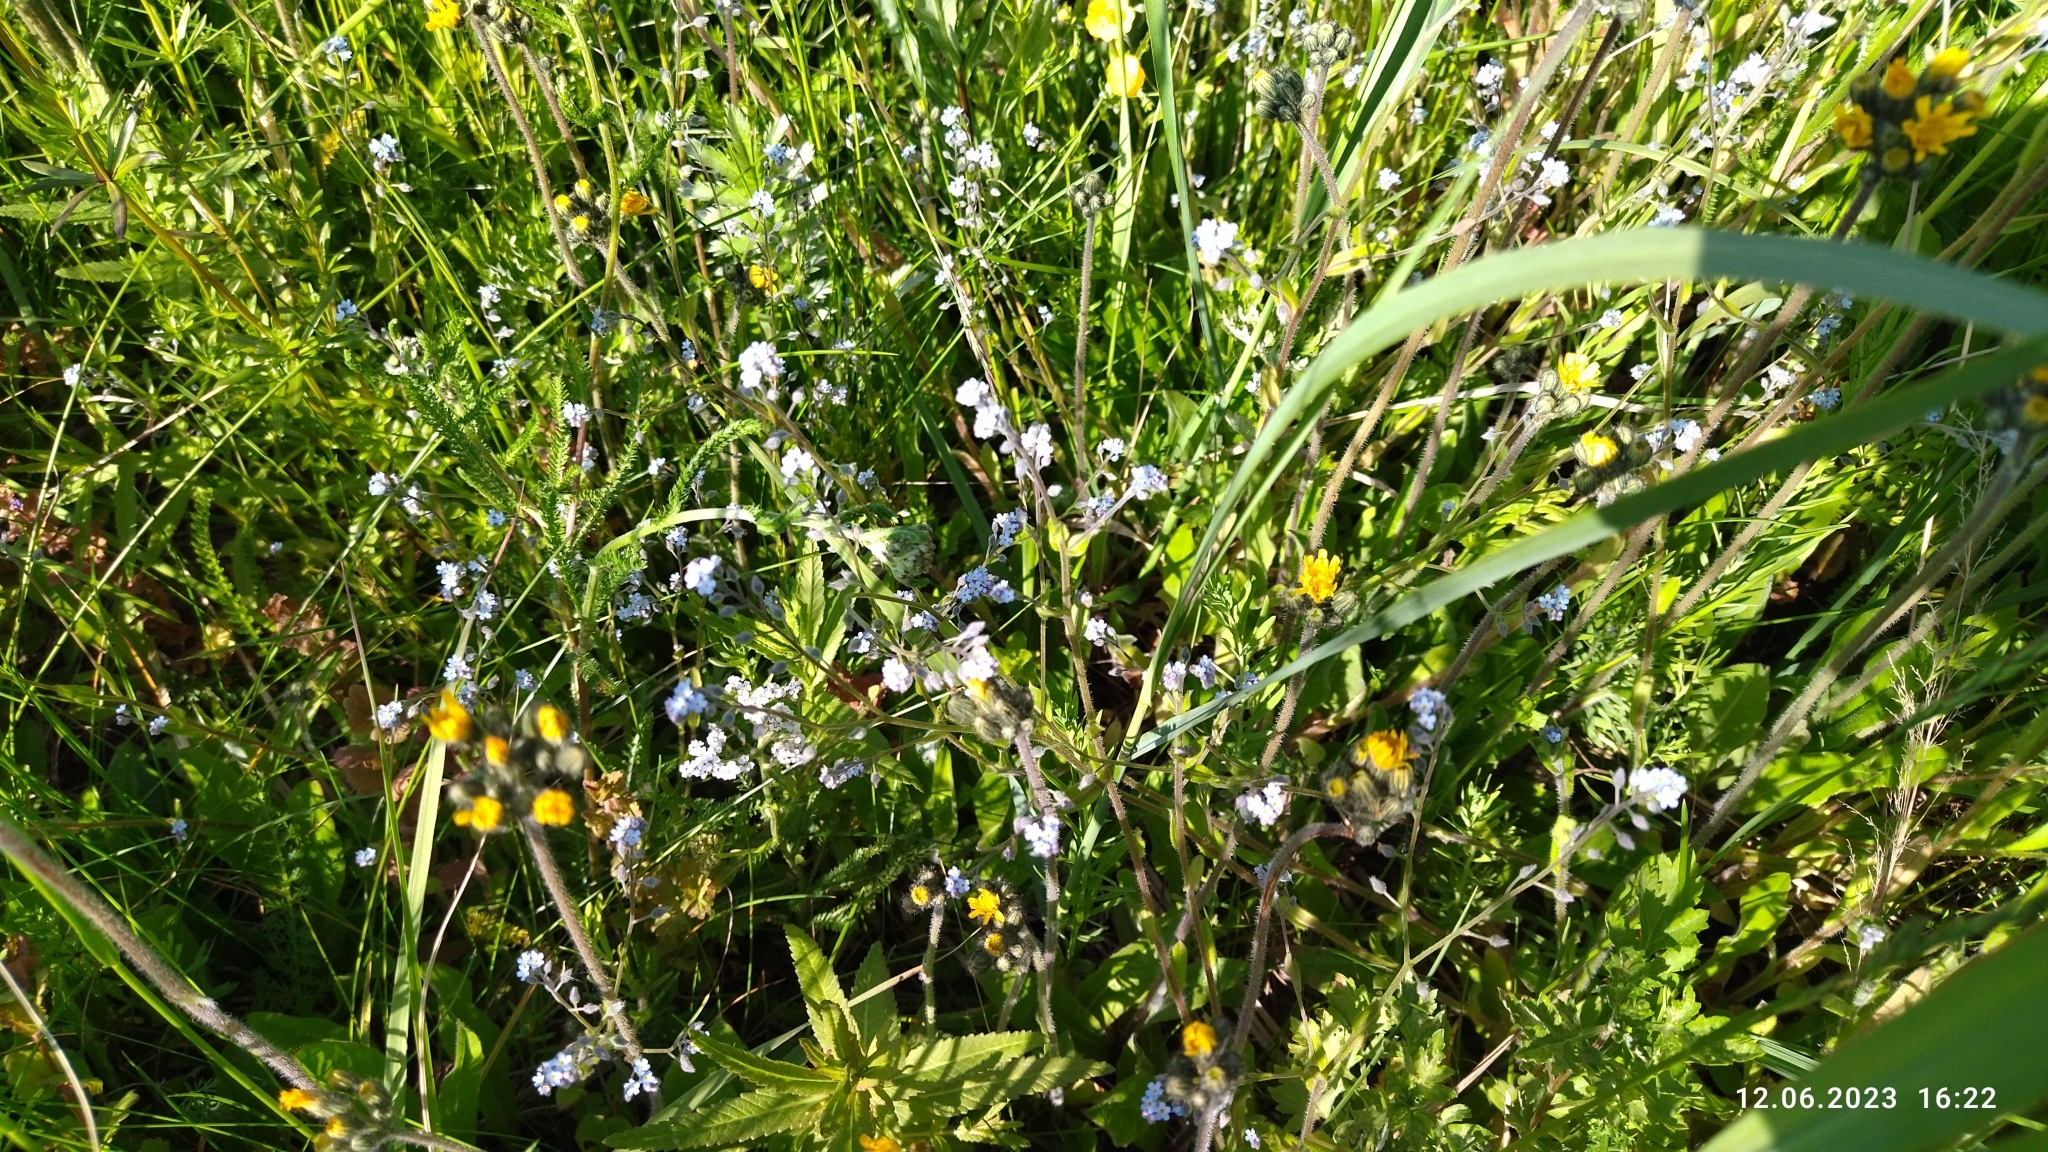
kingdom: Plantae
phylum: Tracheophyta
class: Magnoliopsida
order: Boraginales
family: Boraginaceae
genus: Myosotis
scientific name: Myosotis arvensis
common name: Field forget-me-not
